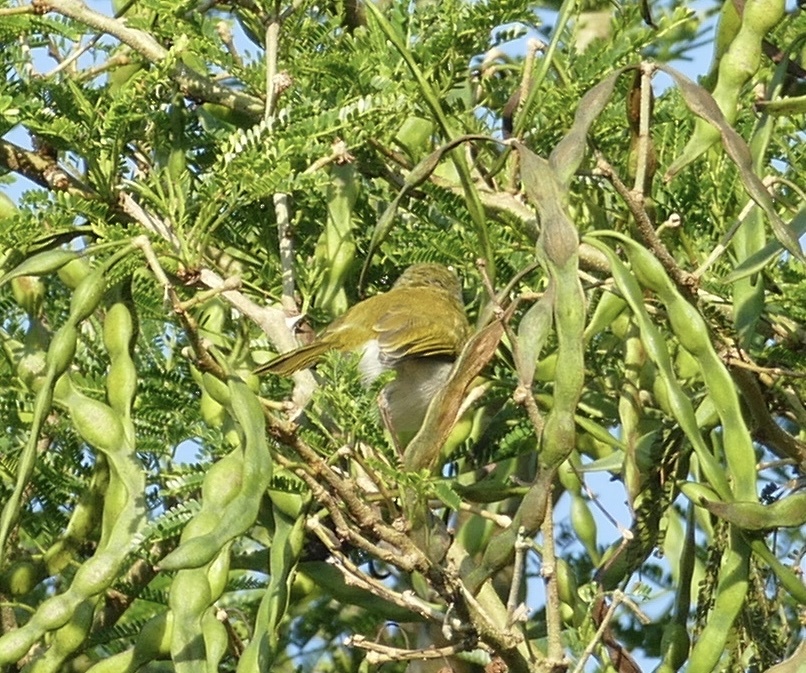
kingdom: Animalia
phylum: Chordata
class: Aves
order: Passeriformes
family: Cisticolidae
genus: Apalis
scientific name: Apalis flavida
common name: Yellow-breasted apalis
